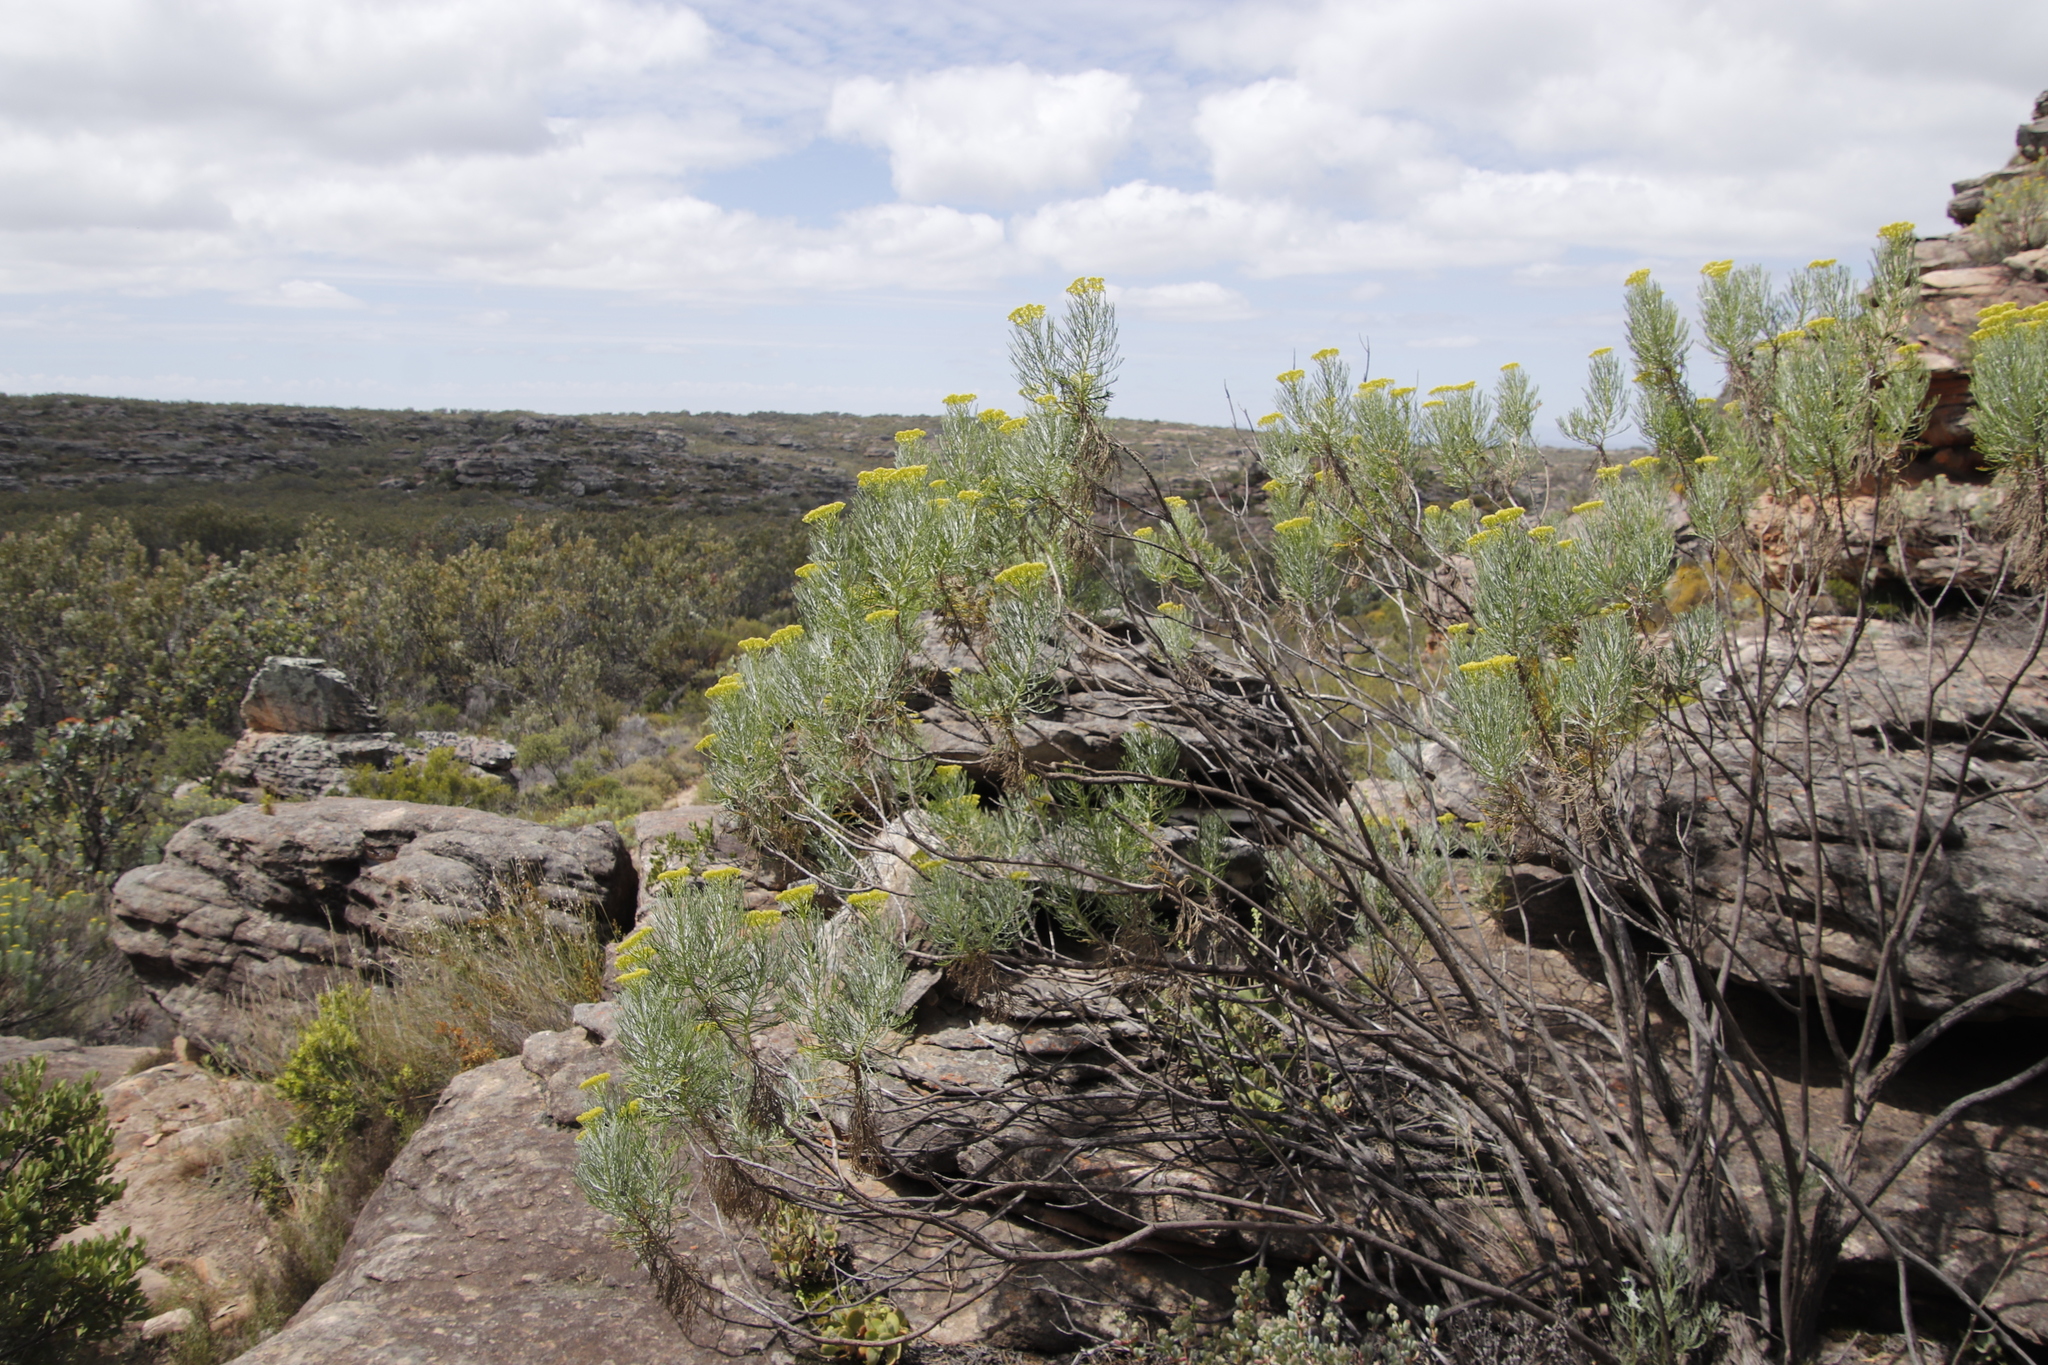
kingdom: Plantae
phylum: Tracheophyta
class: Magnoliopsida
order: Asterales
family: Asteraceae
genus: Hymenolepis
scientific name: Hymenolepis crithmifolia
